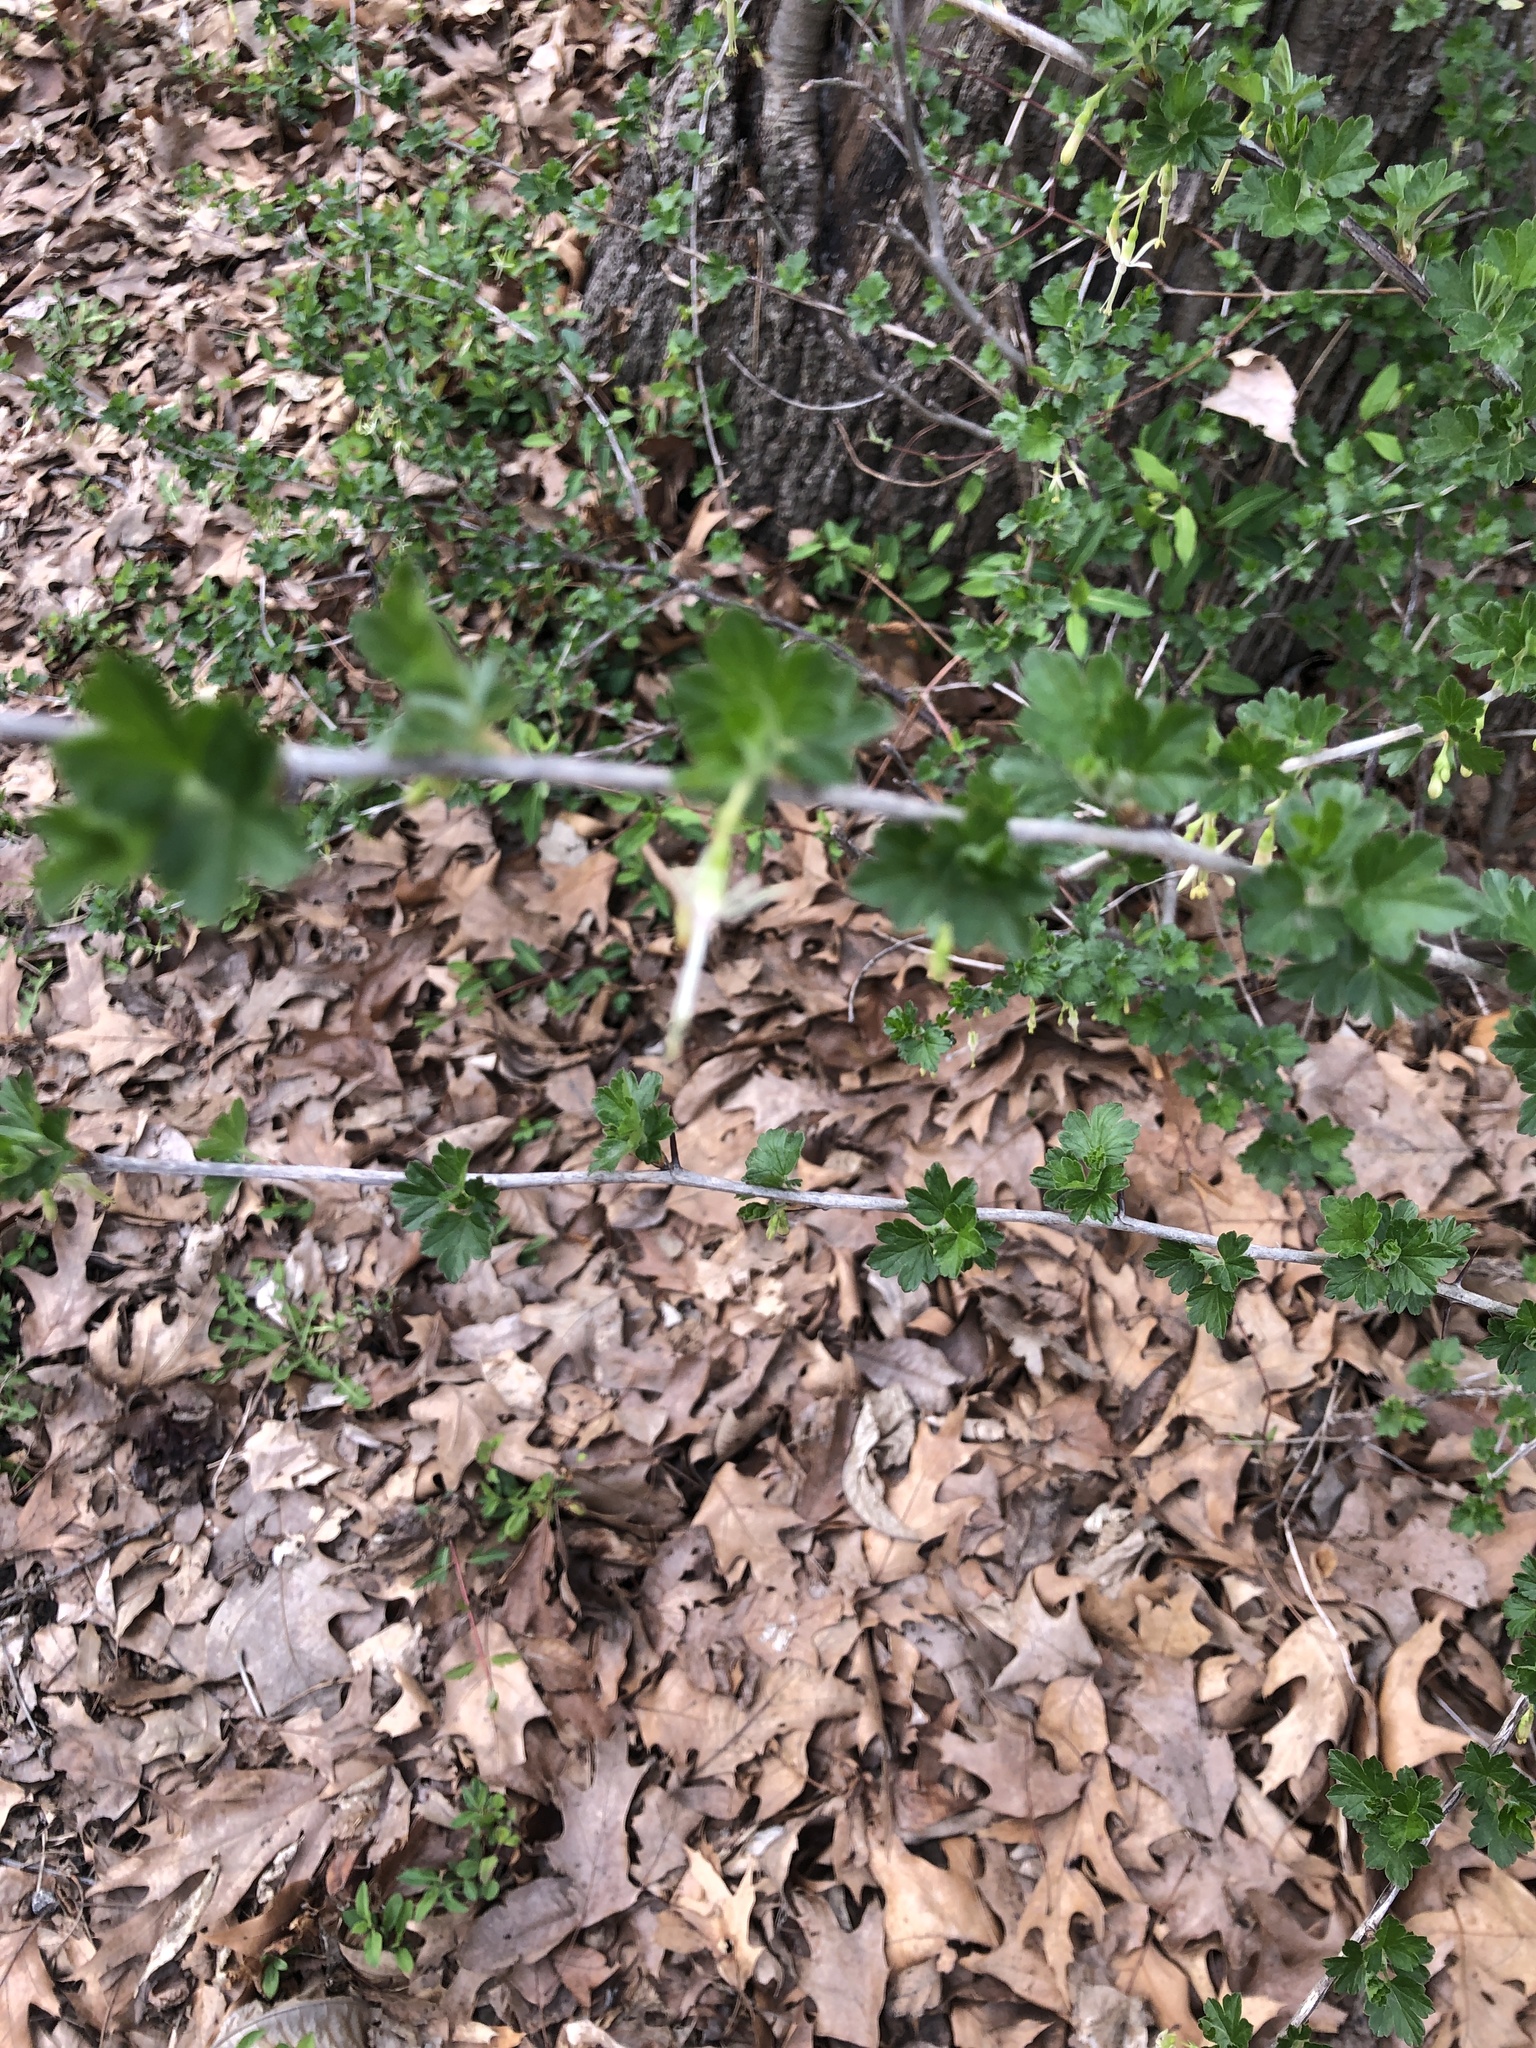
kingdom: Plantae
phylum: Tracheophyta
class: Magnoliopsida
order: Saxifragales
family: Grossulariaceae
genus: Ribes
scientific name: Ribes missouriense
